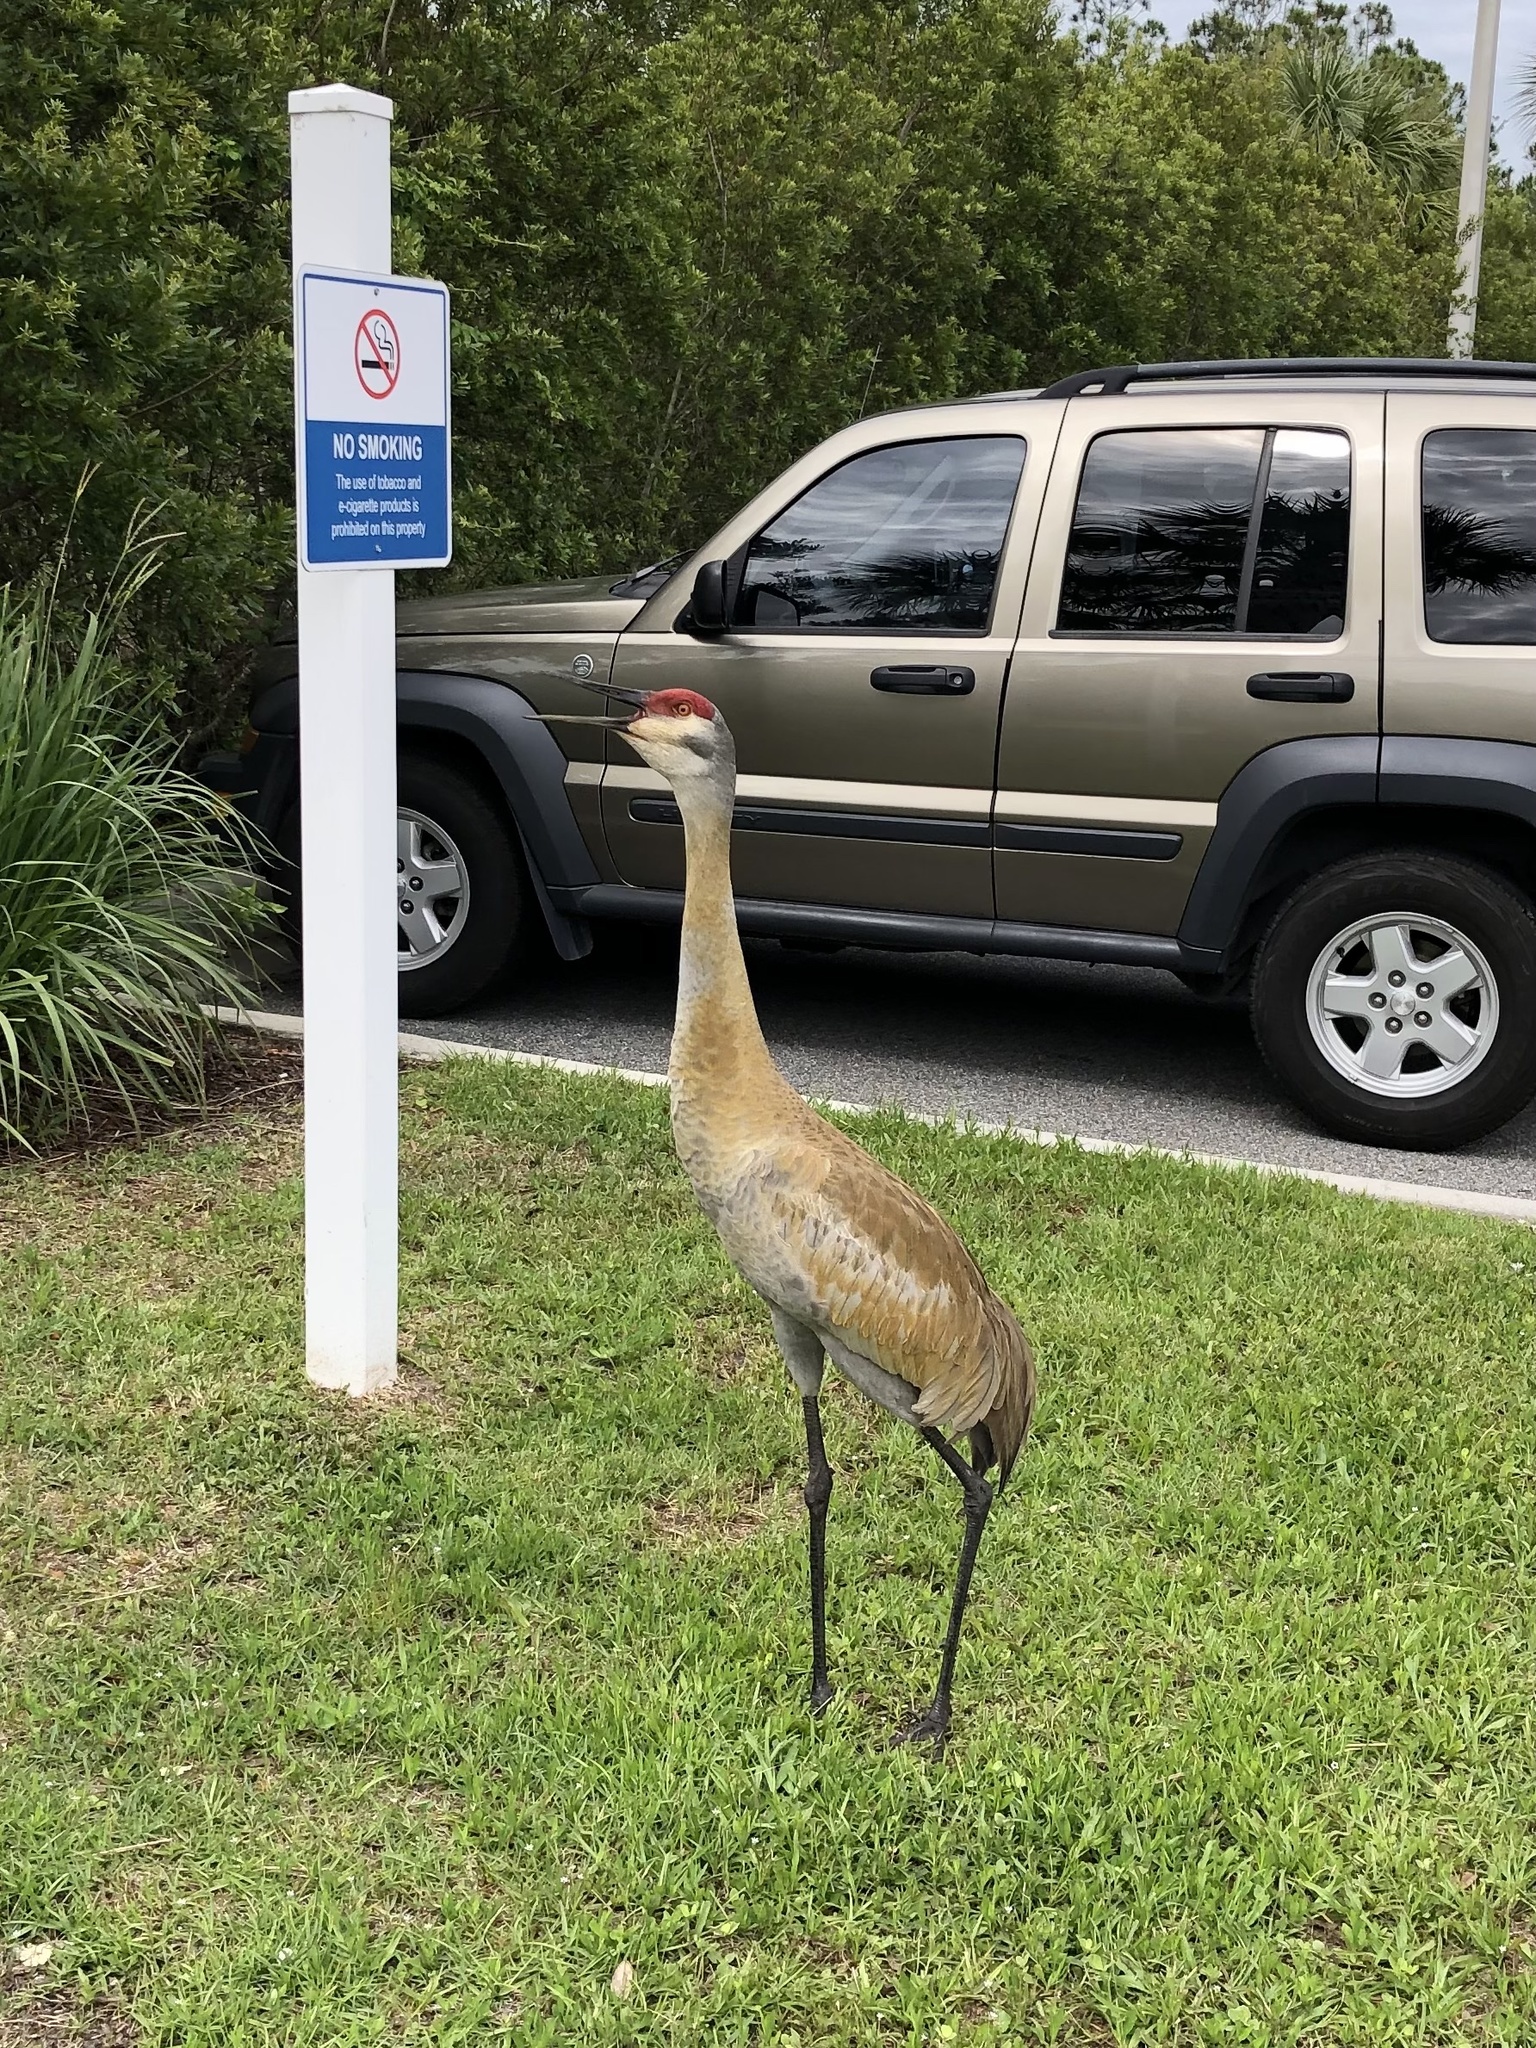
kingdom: Animalia
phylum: Chordata
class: Aves
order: Gruiformes
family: Gruidae
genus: Grus
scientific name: Grus canadensis
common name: Sandhill crane
